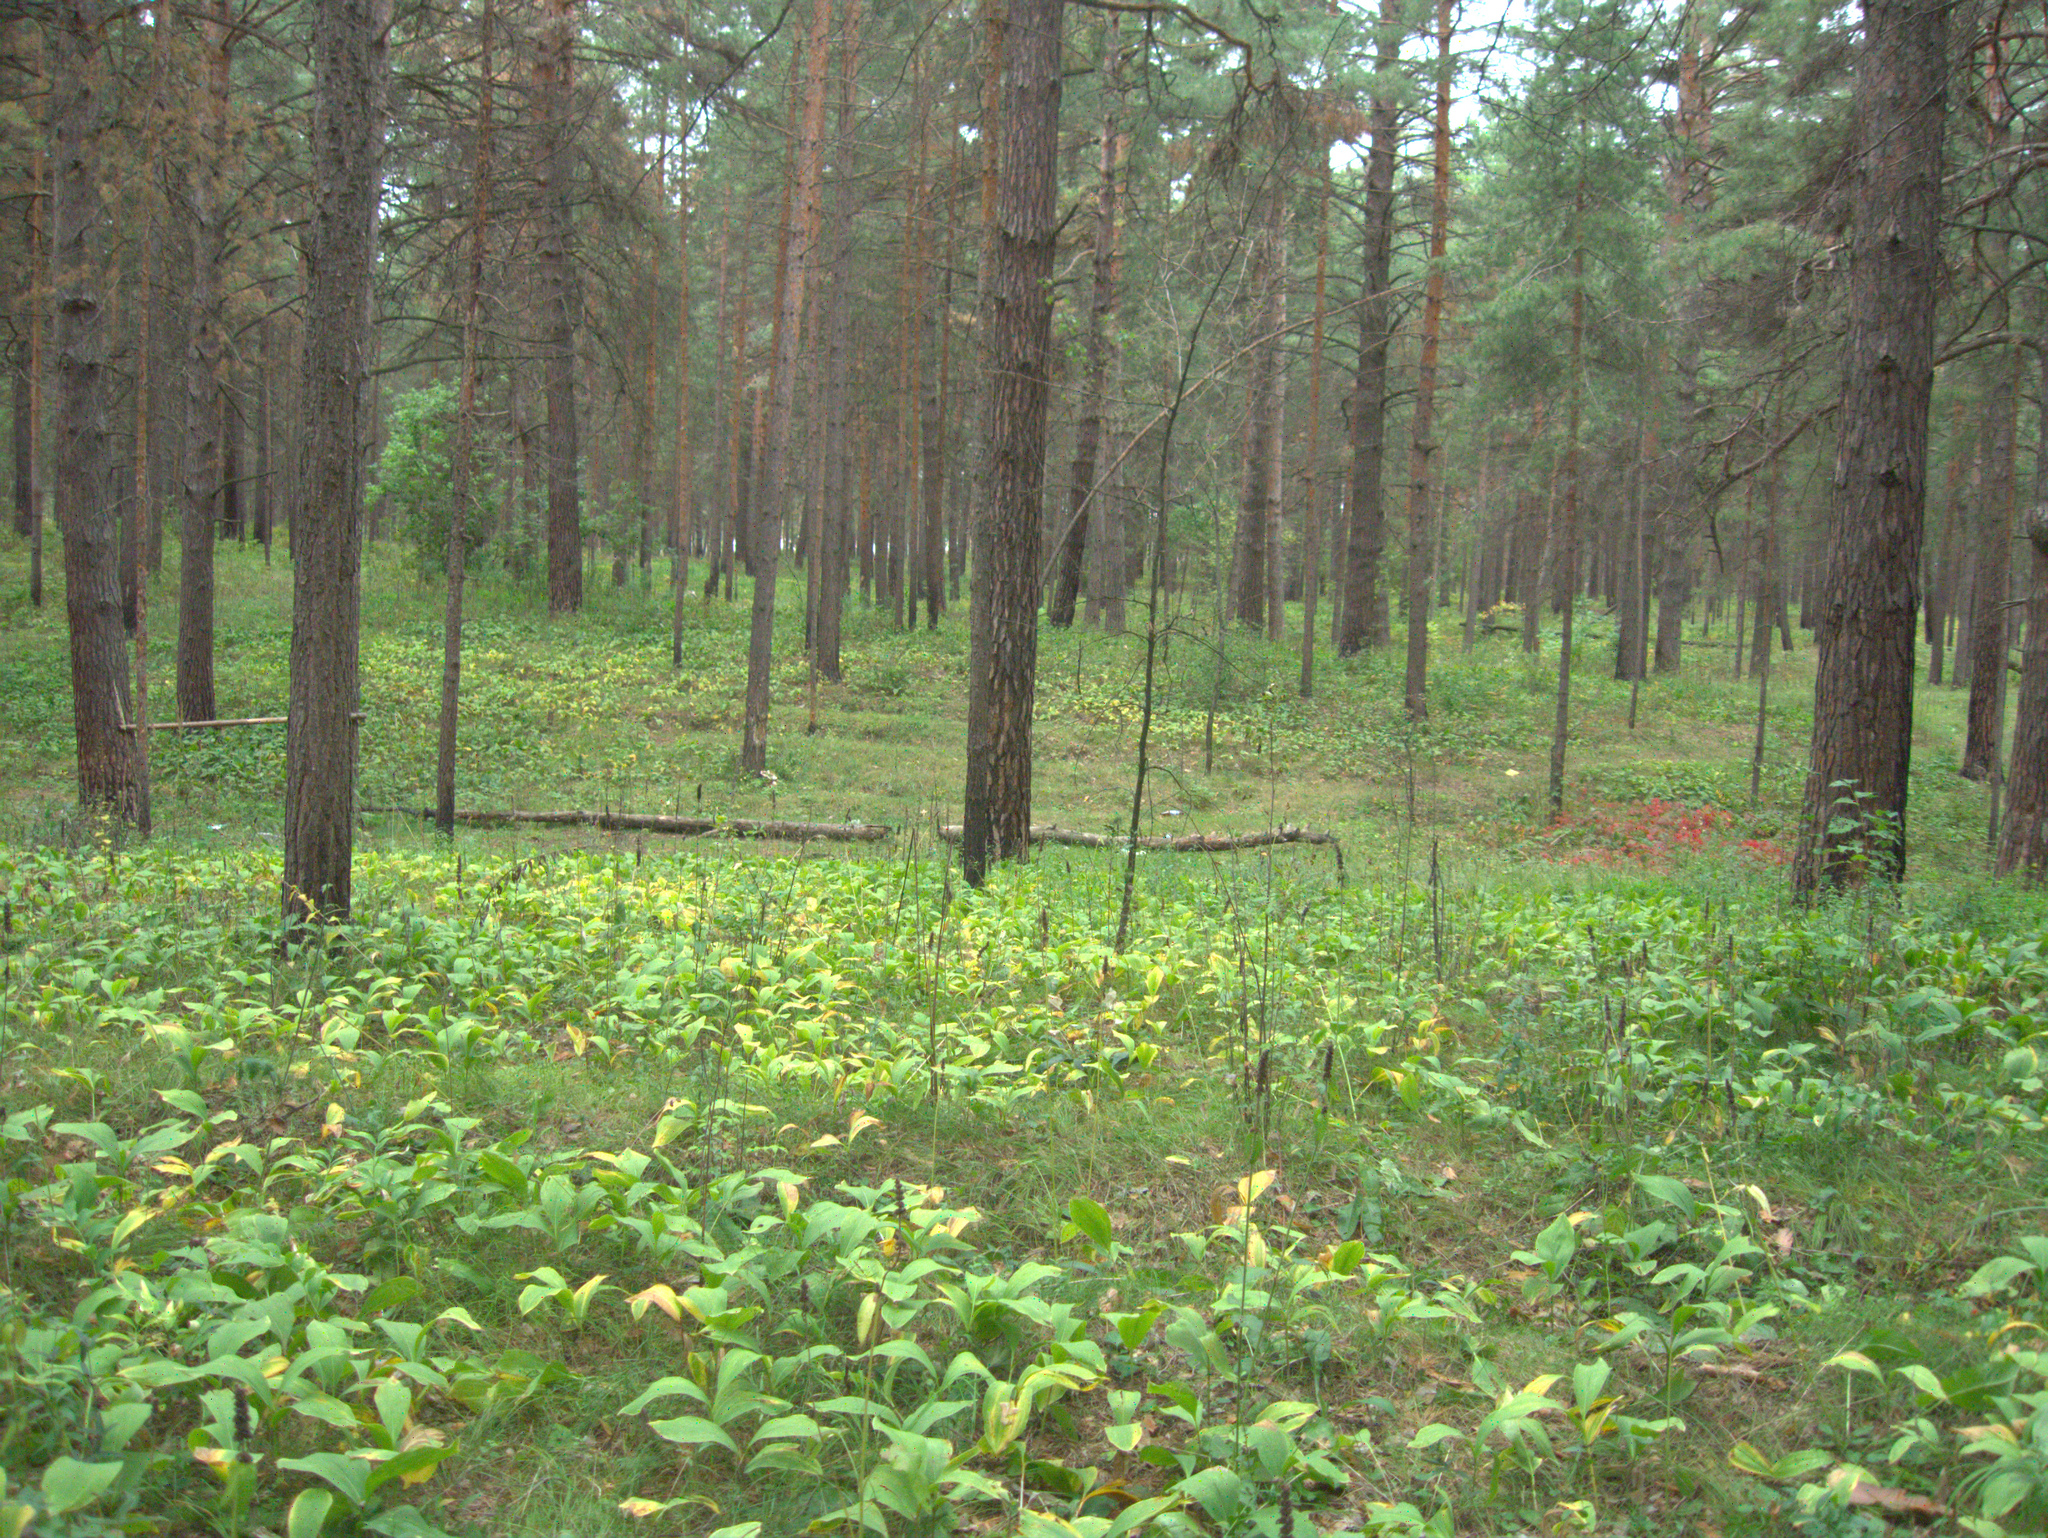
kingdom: Plantae
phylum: Tracheophyta
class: Liliopsida
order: Asparagales
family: Asparagaceae
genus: Convallaria
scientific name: Convallaria majalis
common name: Lily-of-the-valley
